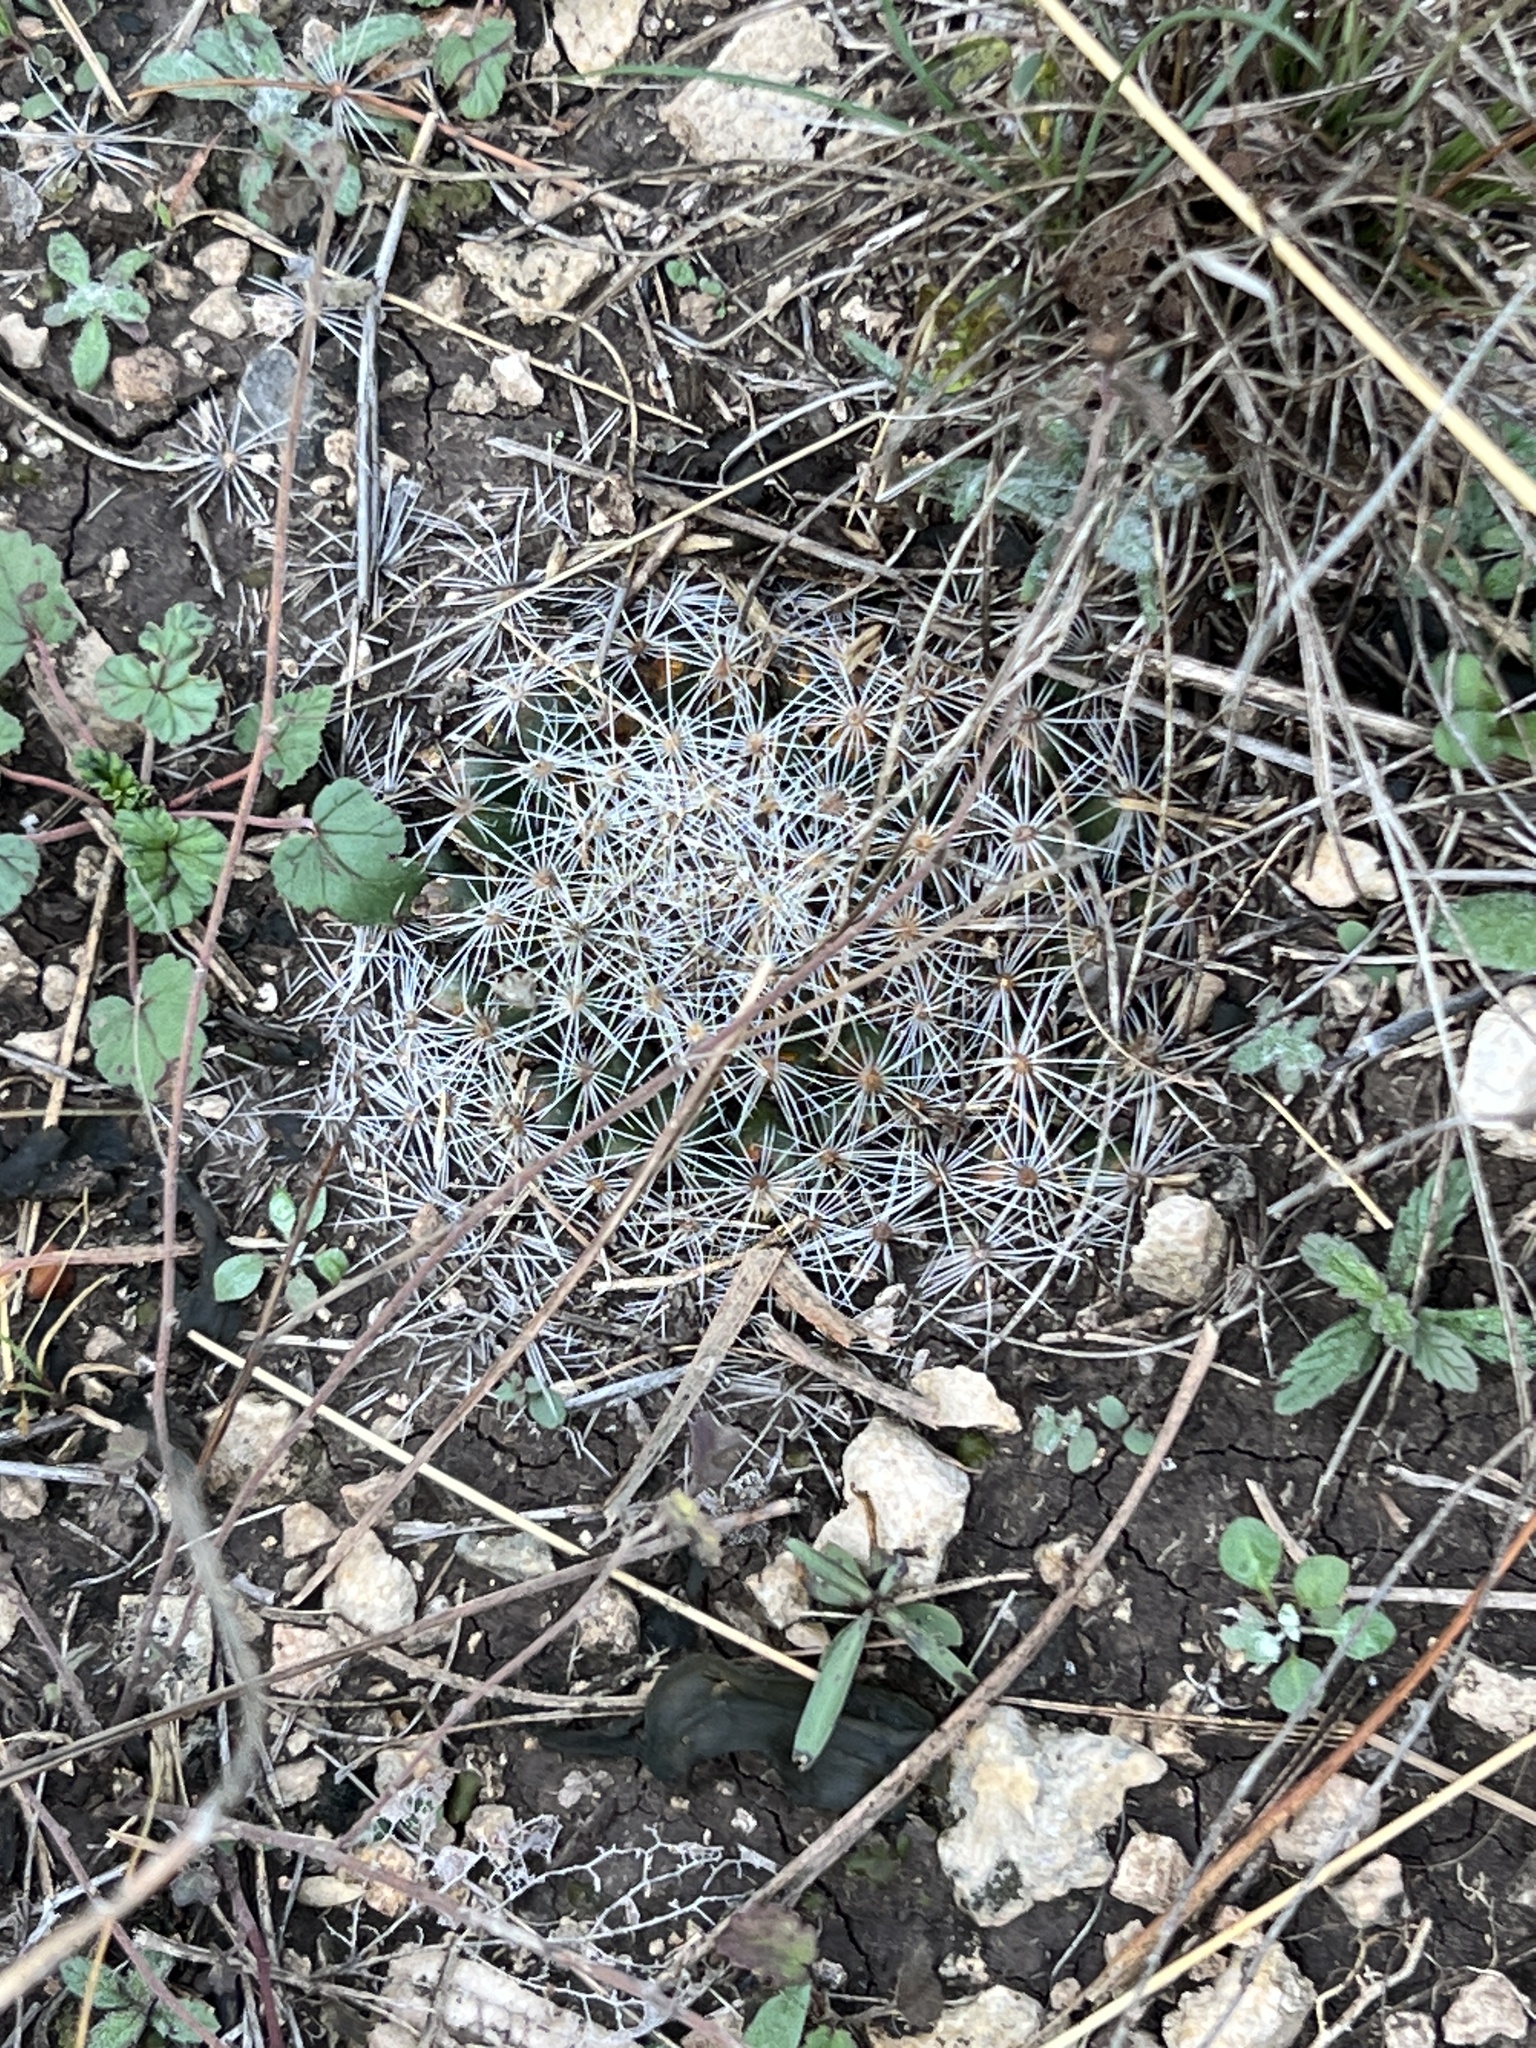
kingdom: Plantae
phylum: Tracheophyta
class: Magnoliopsida
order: Caryophyllales
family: Cactaceae
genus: Mammillaria
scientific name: Mammillaria heyderi
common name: Little nipple cactus
